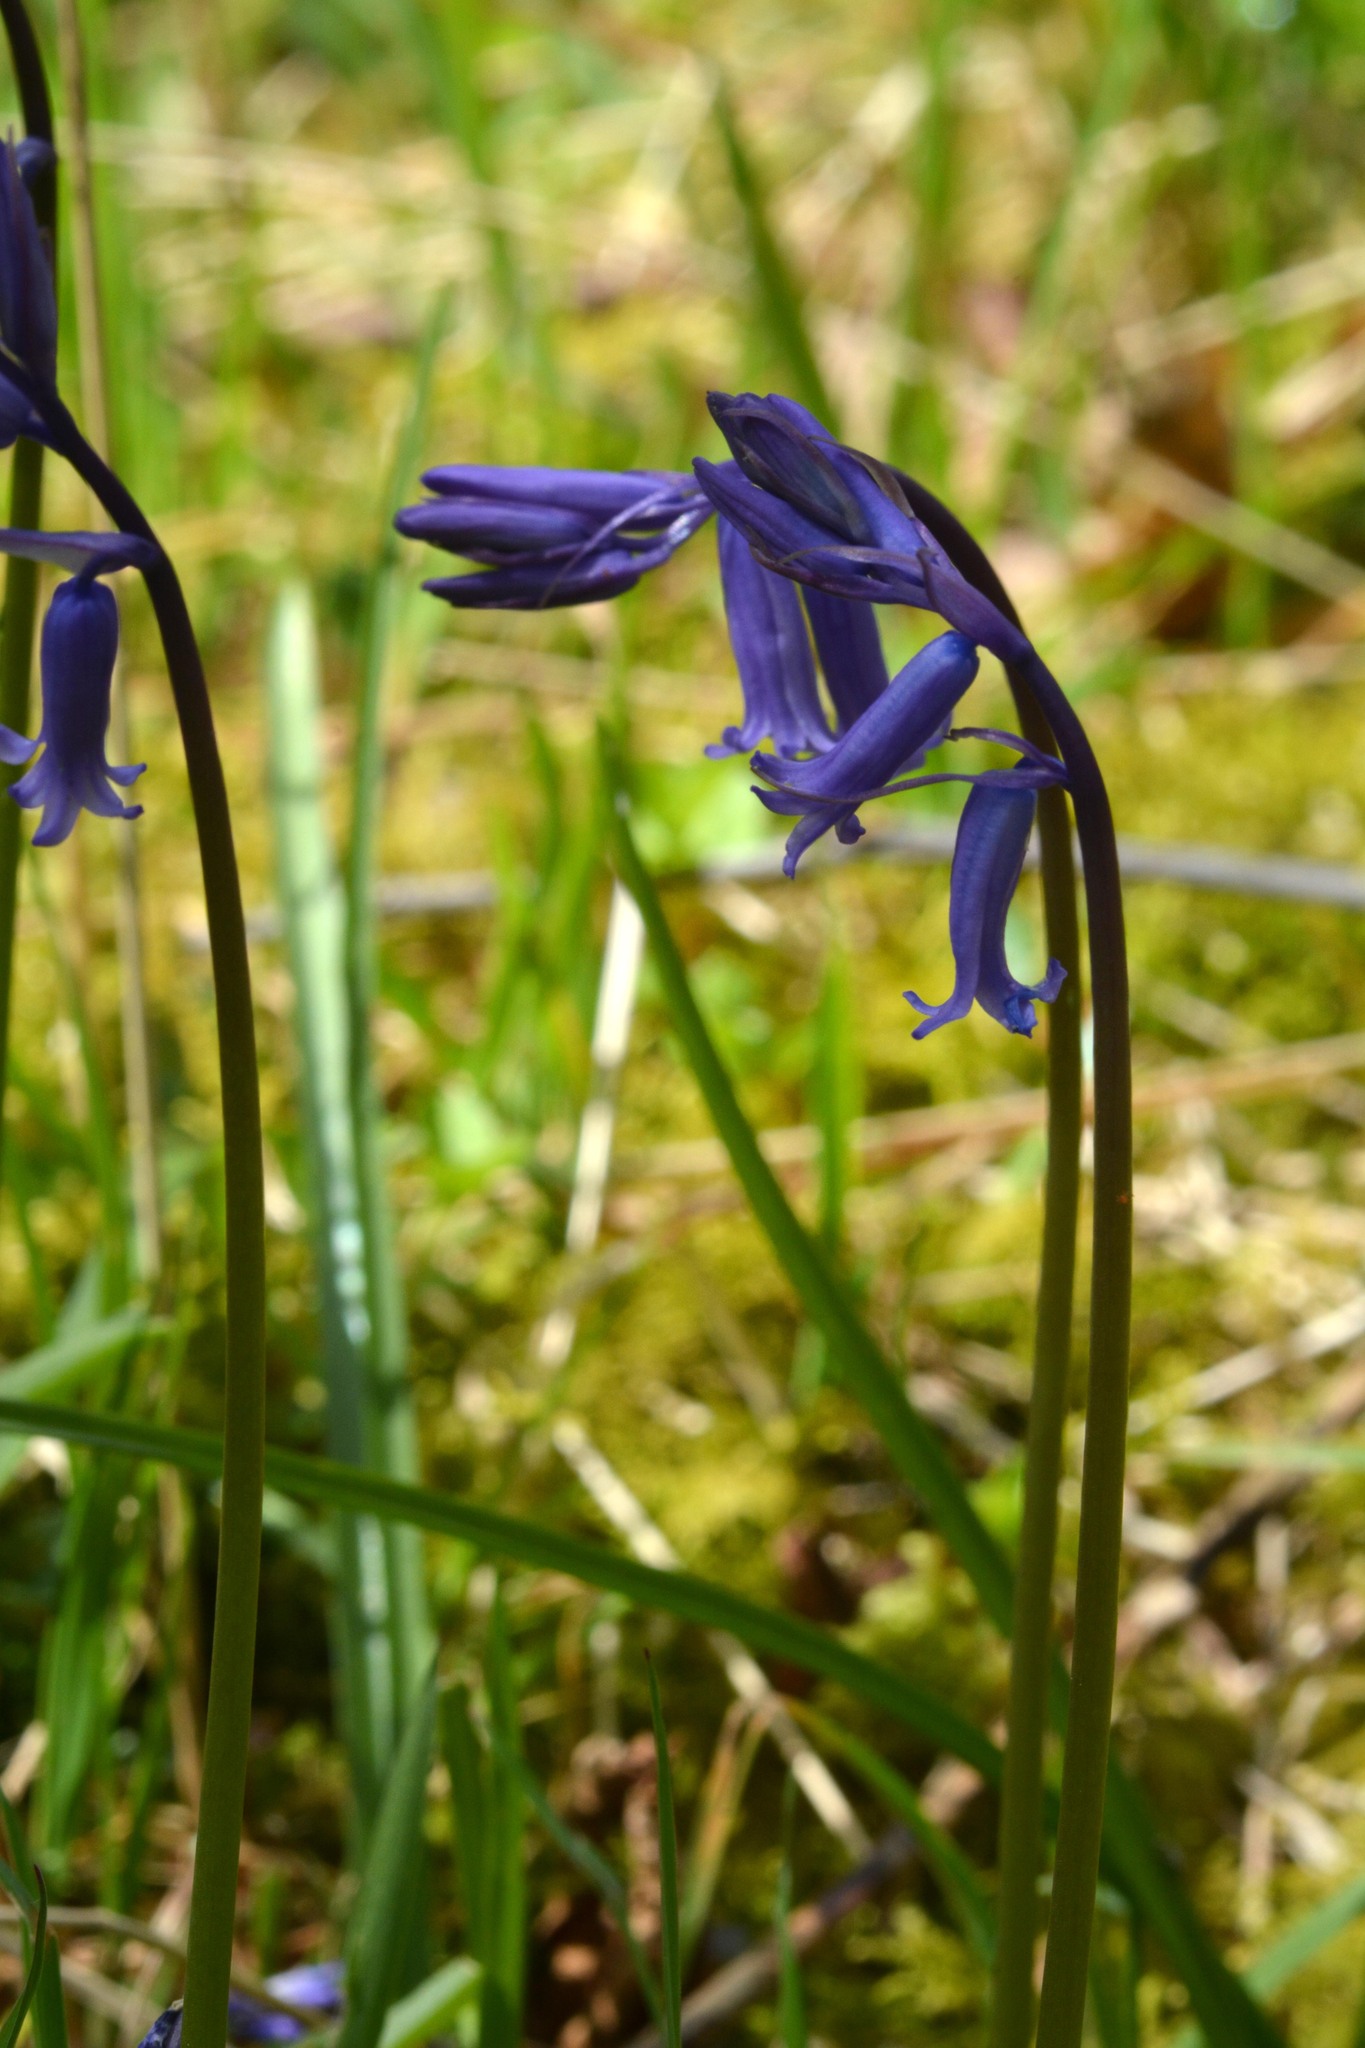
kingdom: Plantae
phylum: Tracheophyta
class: Liliopsida
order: Asparagales
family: Asparagaceae
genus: Hyacinthoides
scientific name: Hyacinthoides non-scripta
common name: Bluebell
